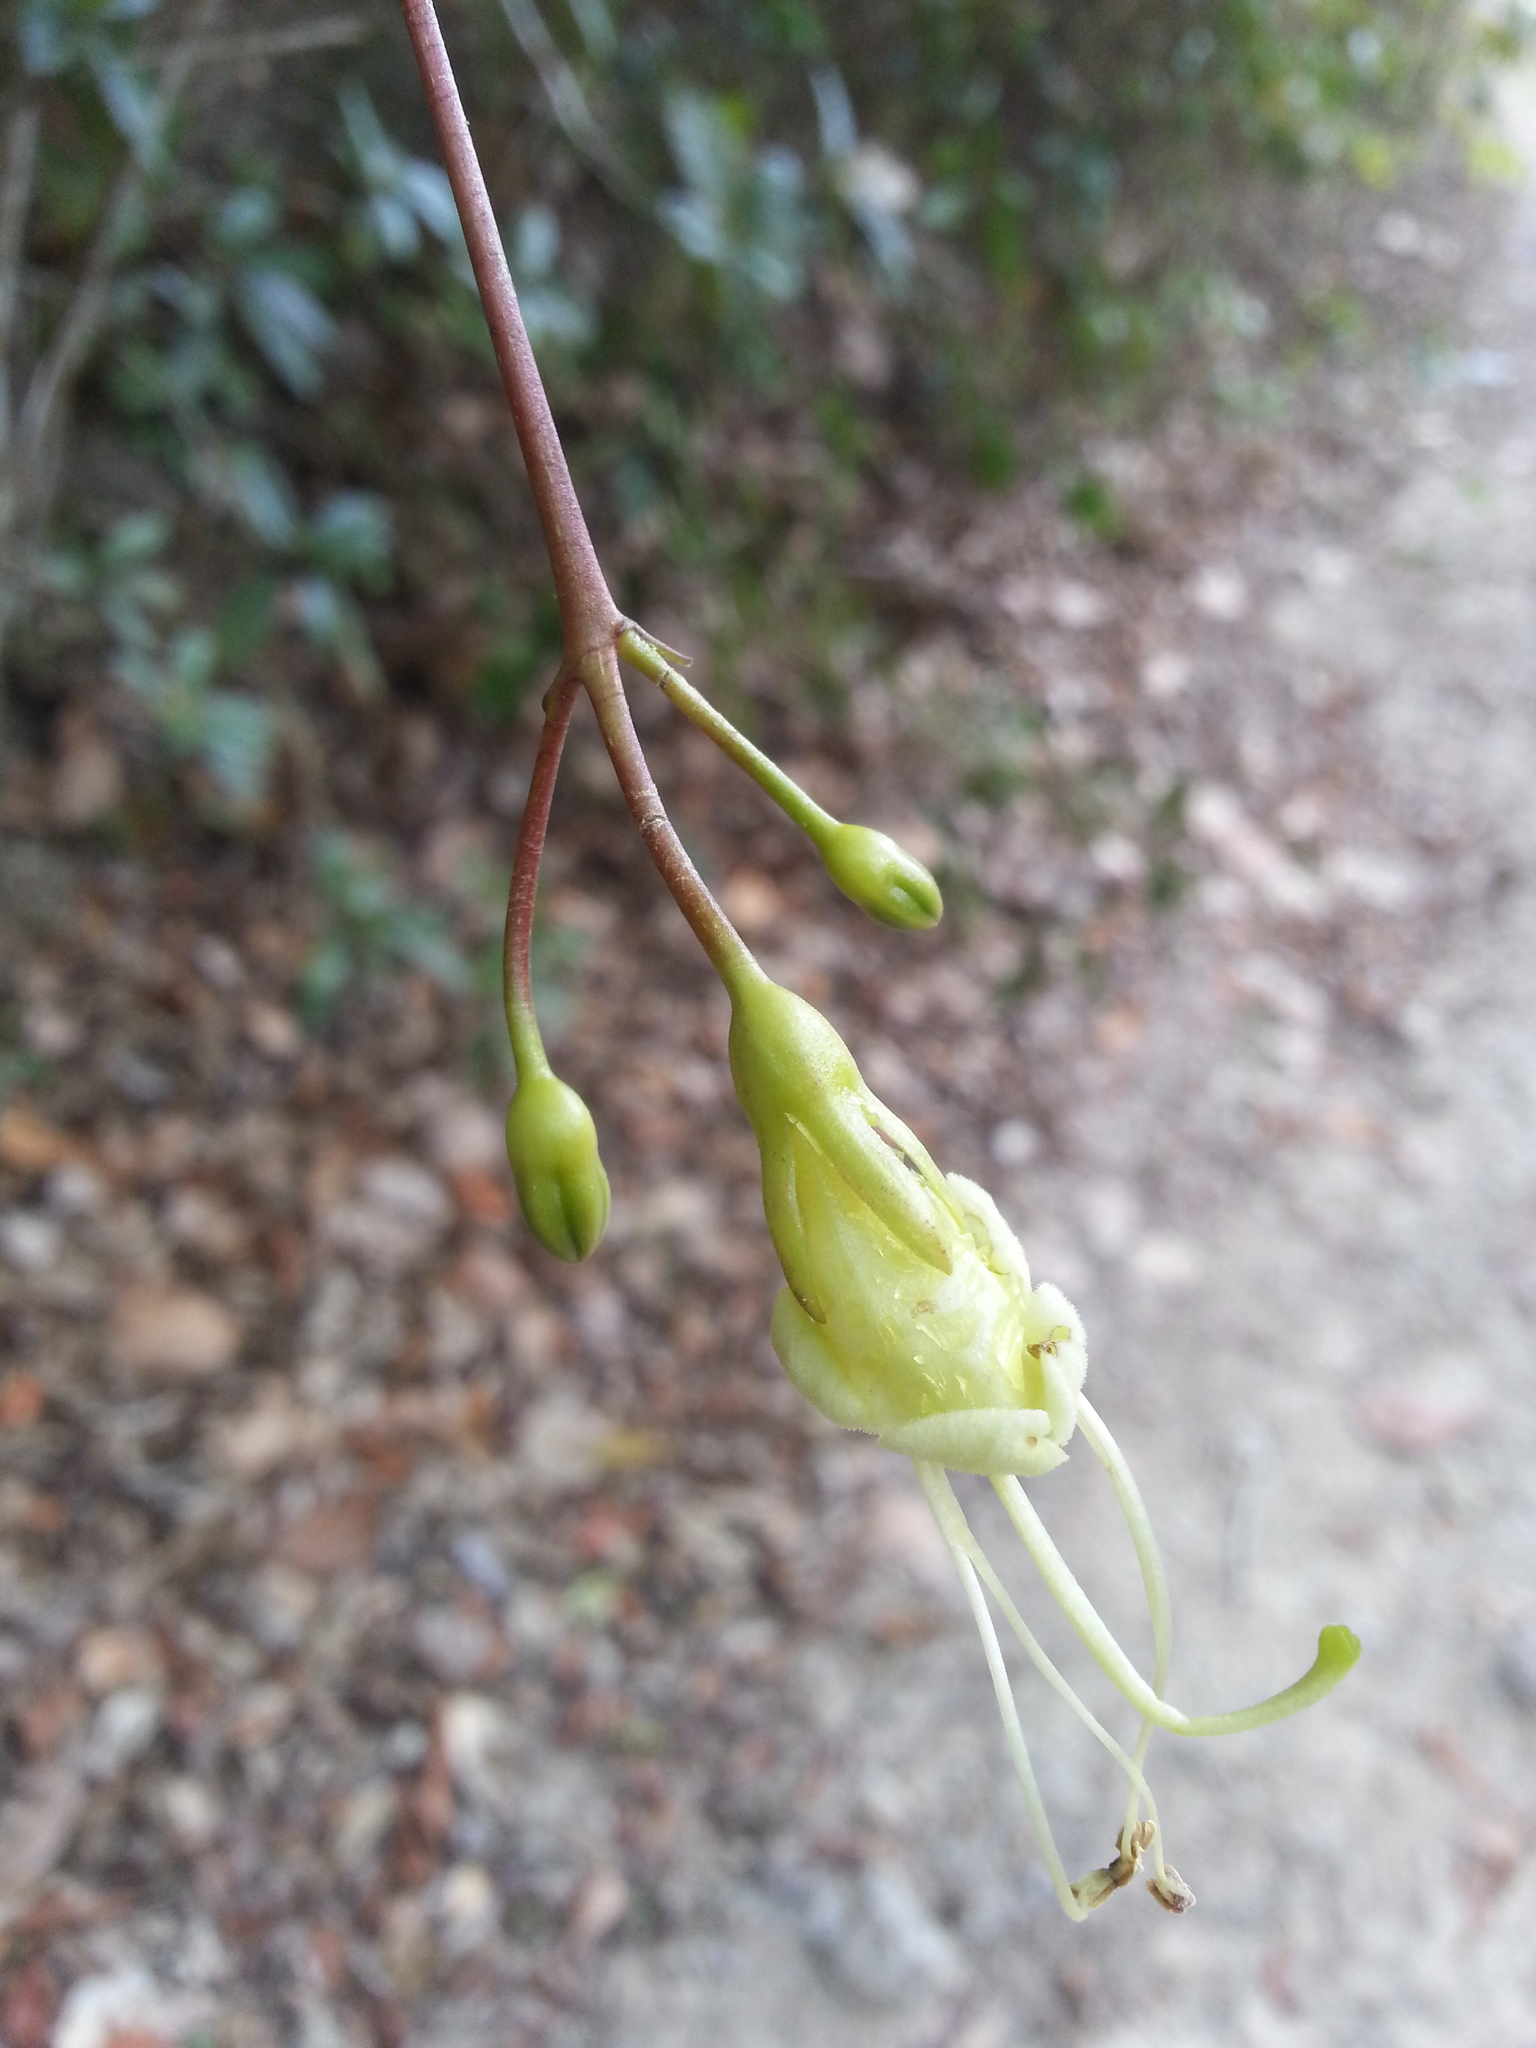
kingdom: Plantae
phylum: Tracheophyta
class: Magnoliopsida
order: Lamiales
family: Gesneriaceae
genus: Gesneria
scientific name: Gesneria pedunculosa
